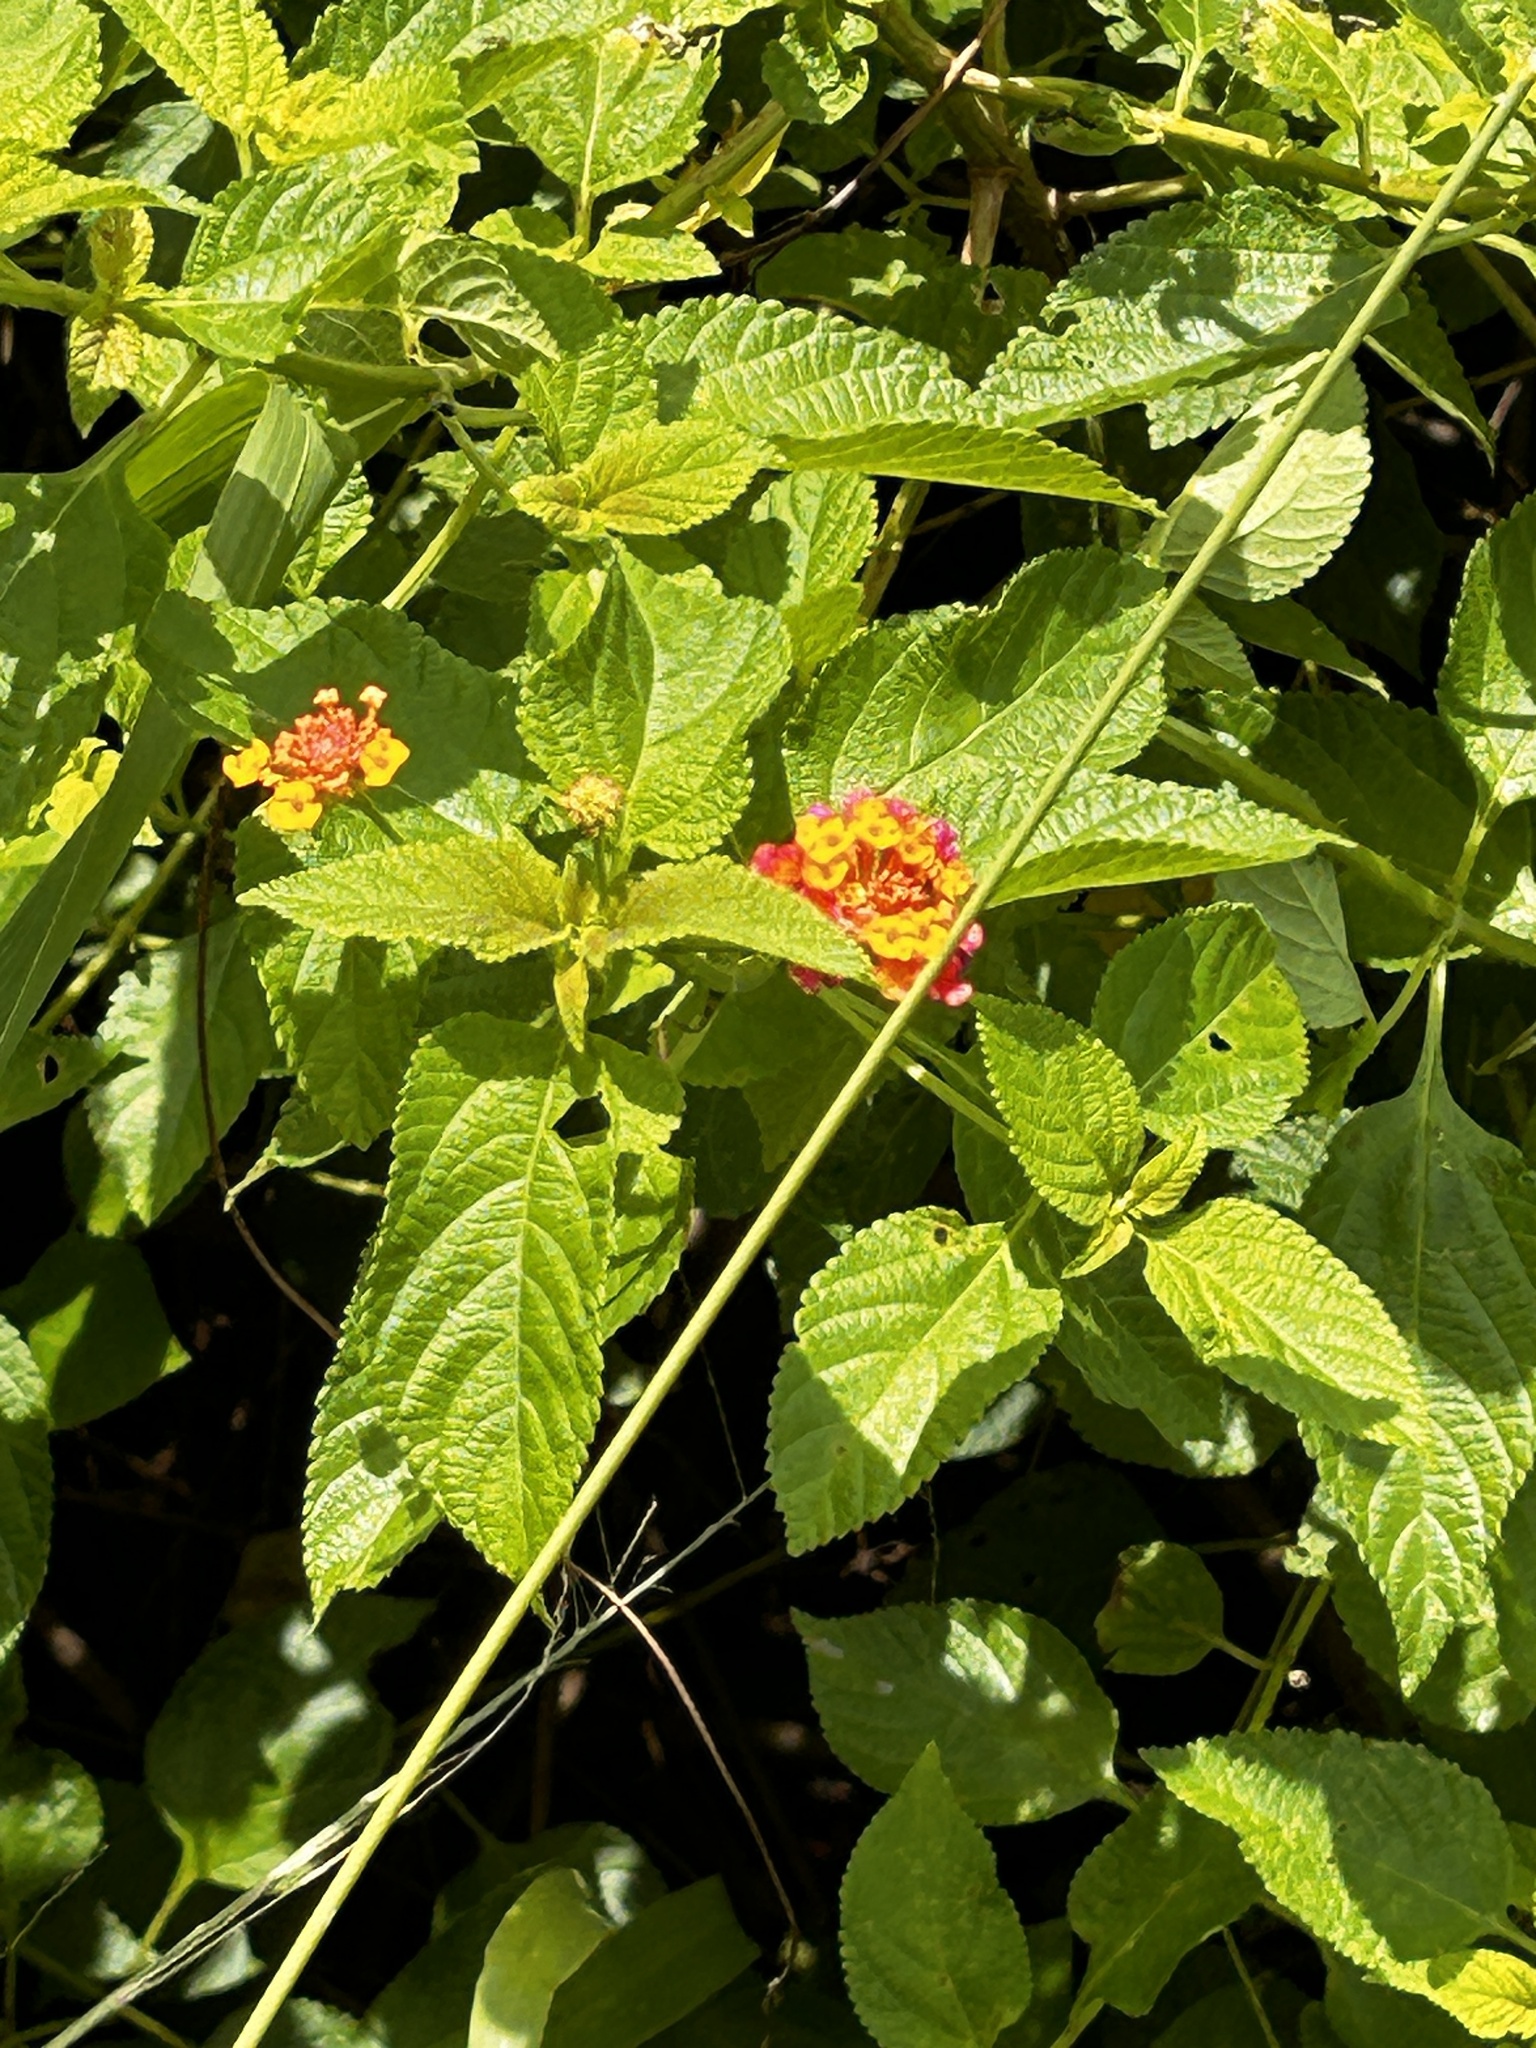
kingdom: Plantae
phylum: Tracheophyta
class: Magnoliopsida
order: Lamiales
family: Verbenaceae
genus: Lantana
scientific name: Lantana camara
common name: Lantana
